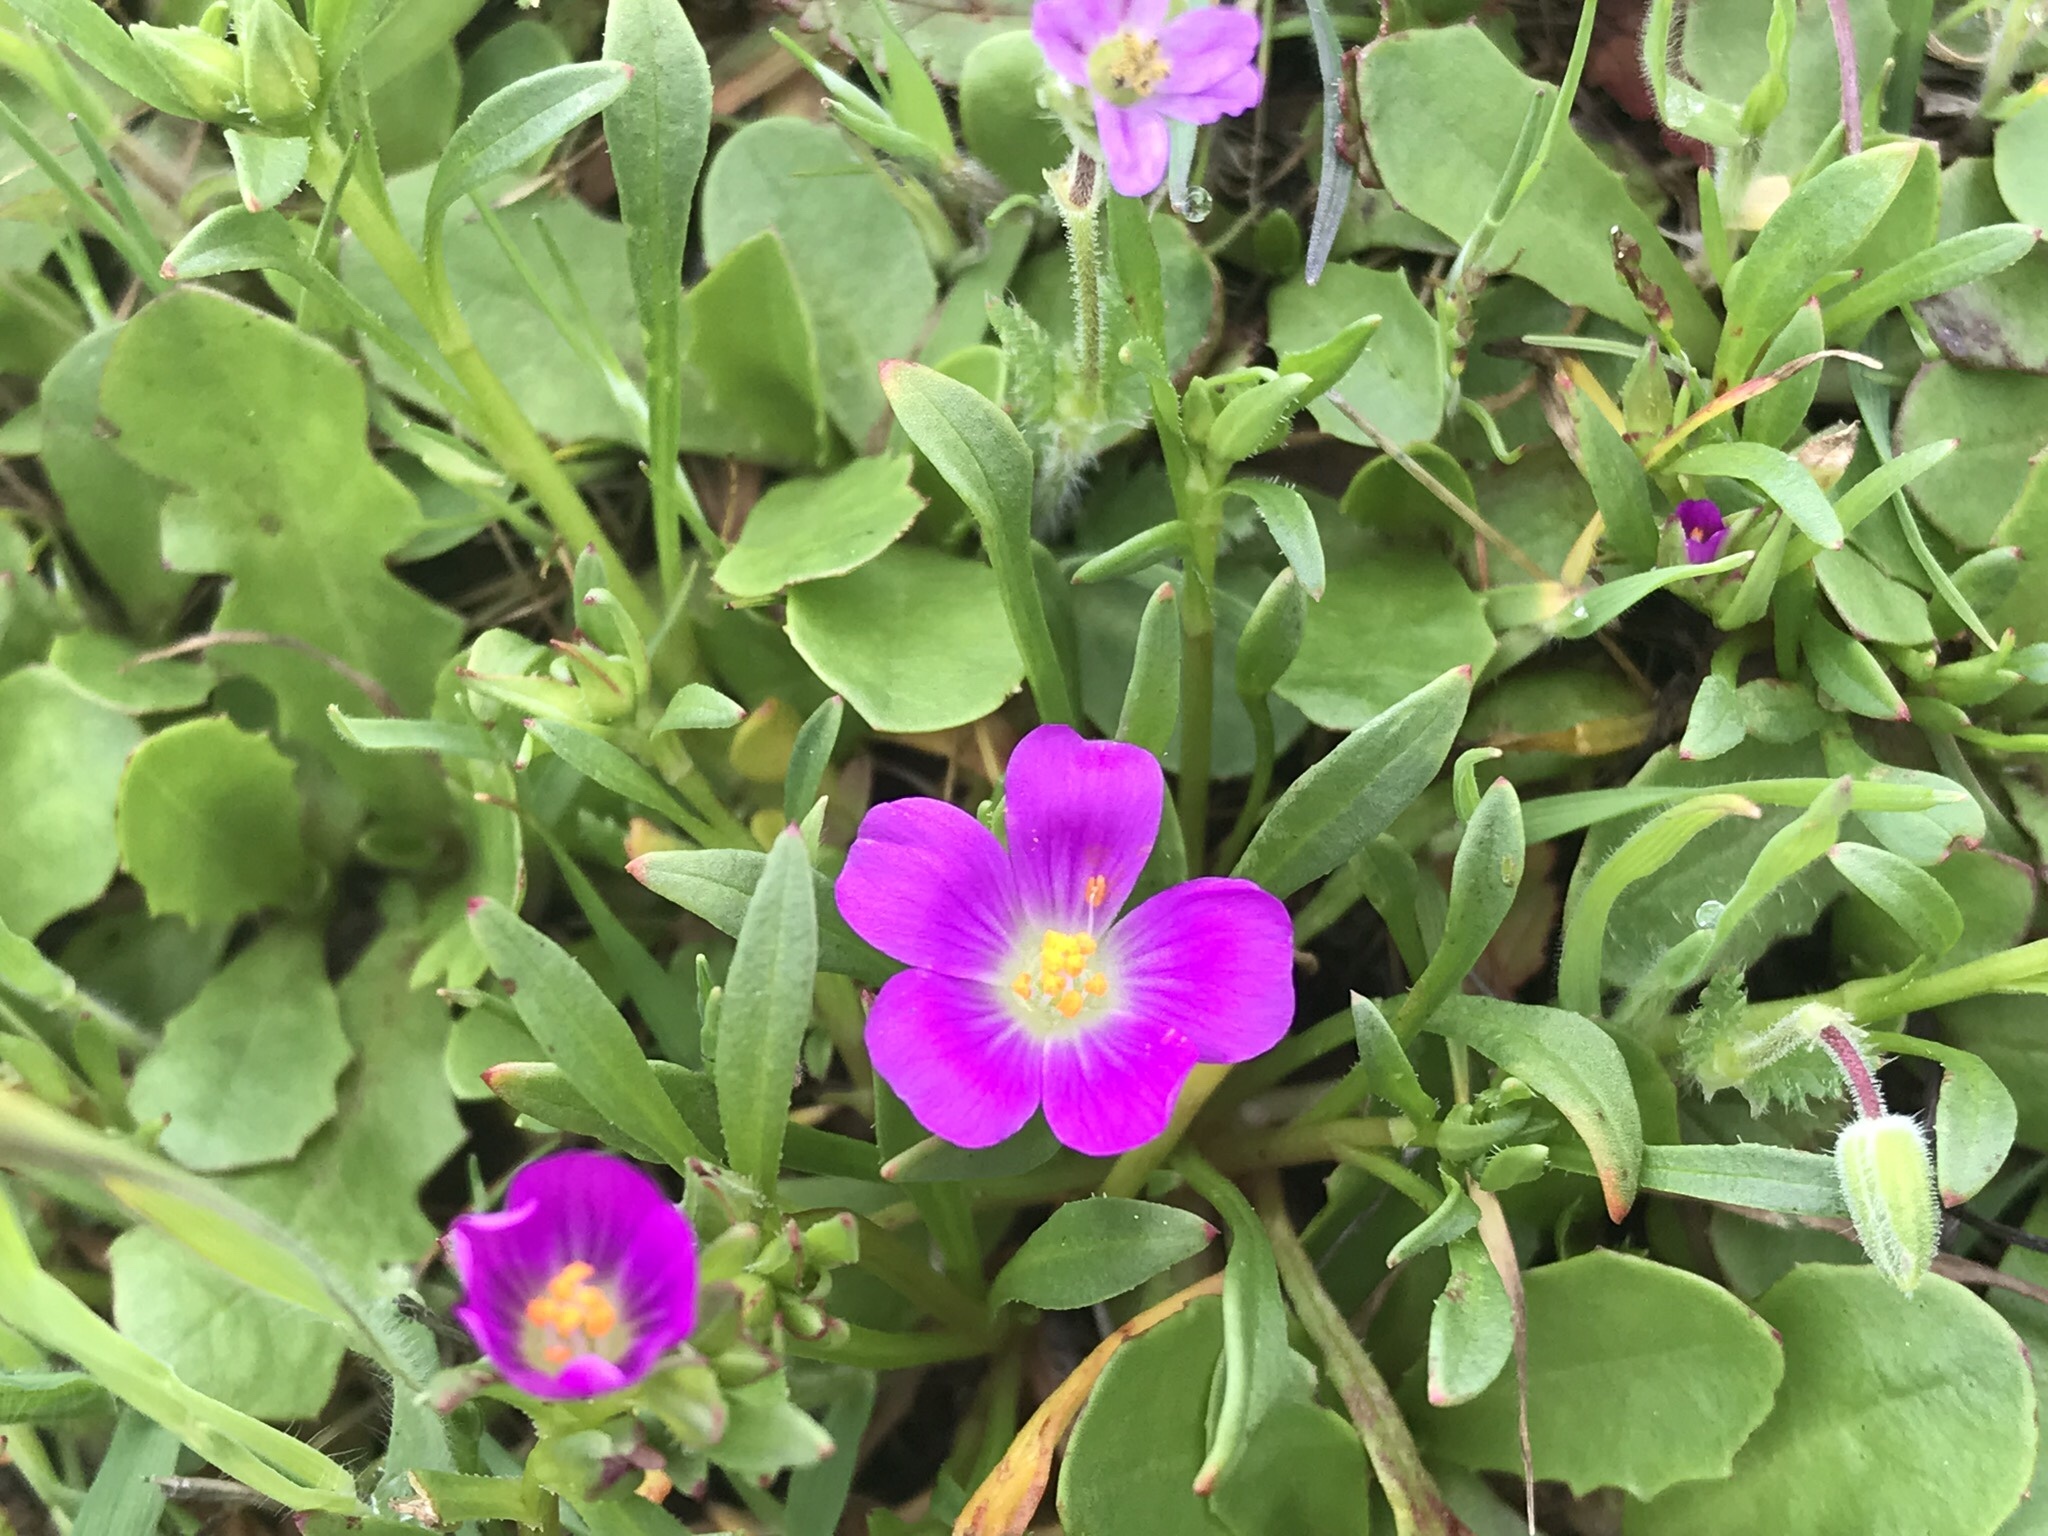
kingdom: Plantae
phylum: Tracheophyta
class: Magnoliopsida
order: Caryophyllales
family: Montiaceae
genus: Calandrinia
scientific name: Calandrinia menziesii
